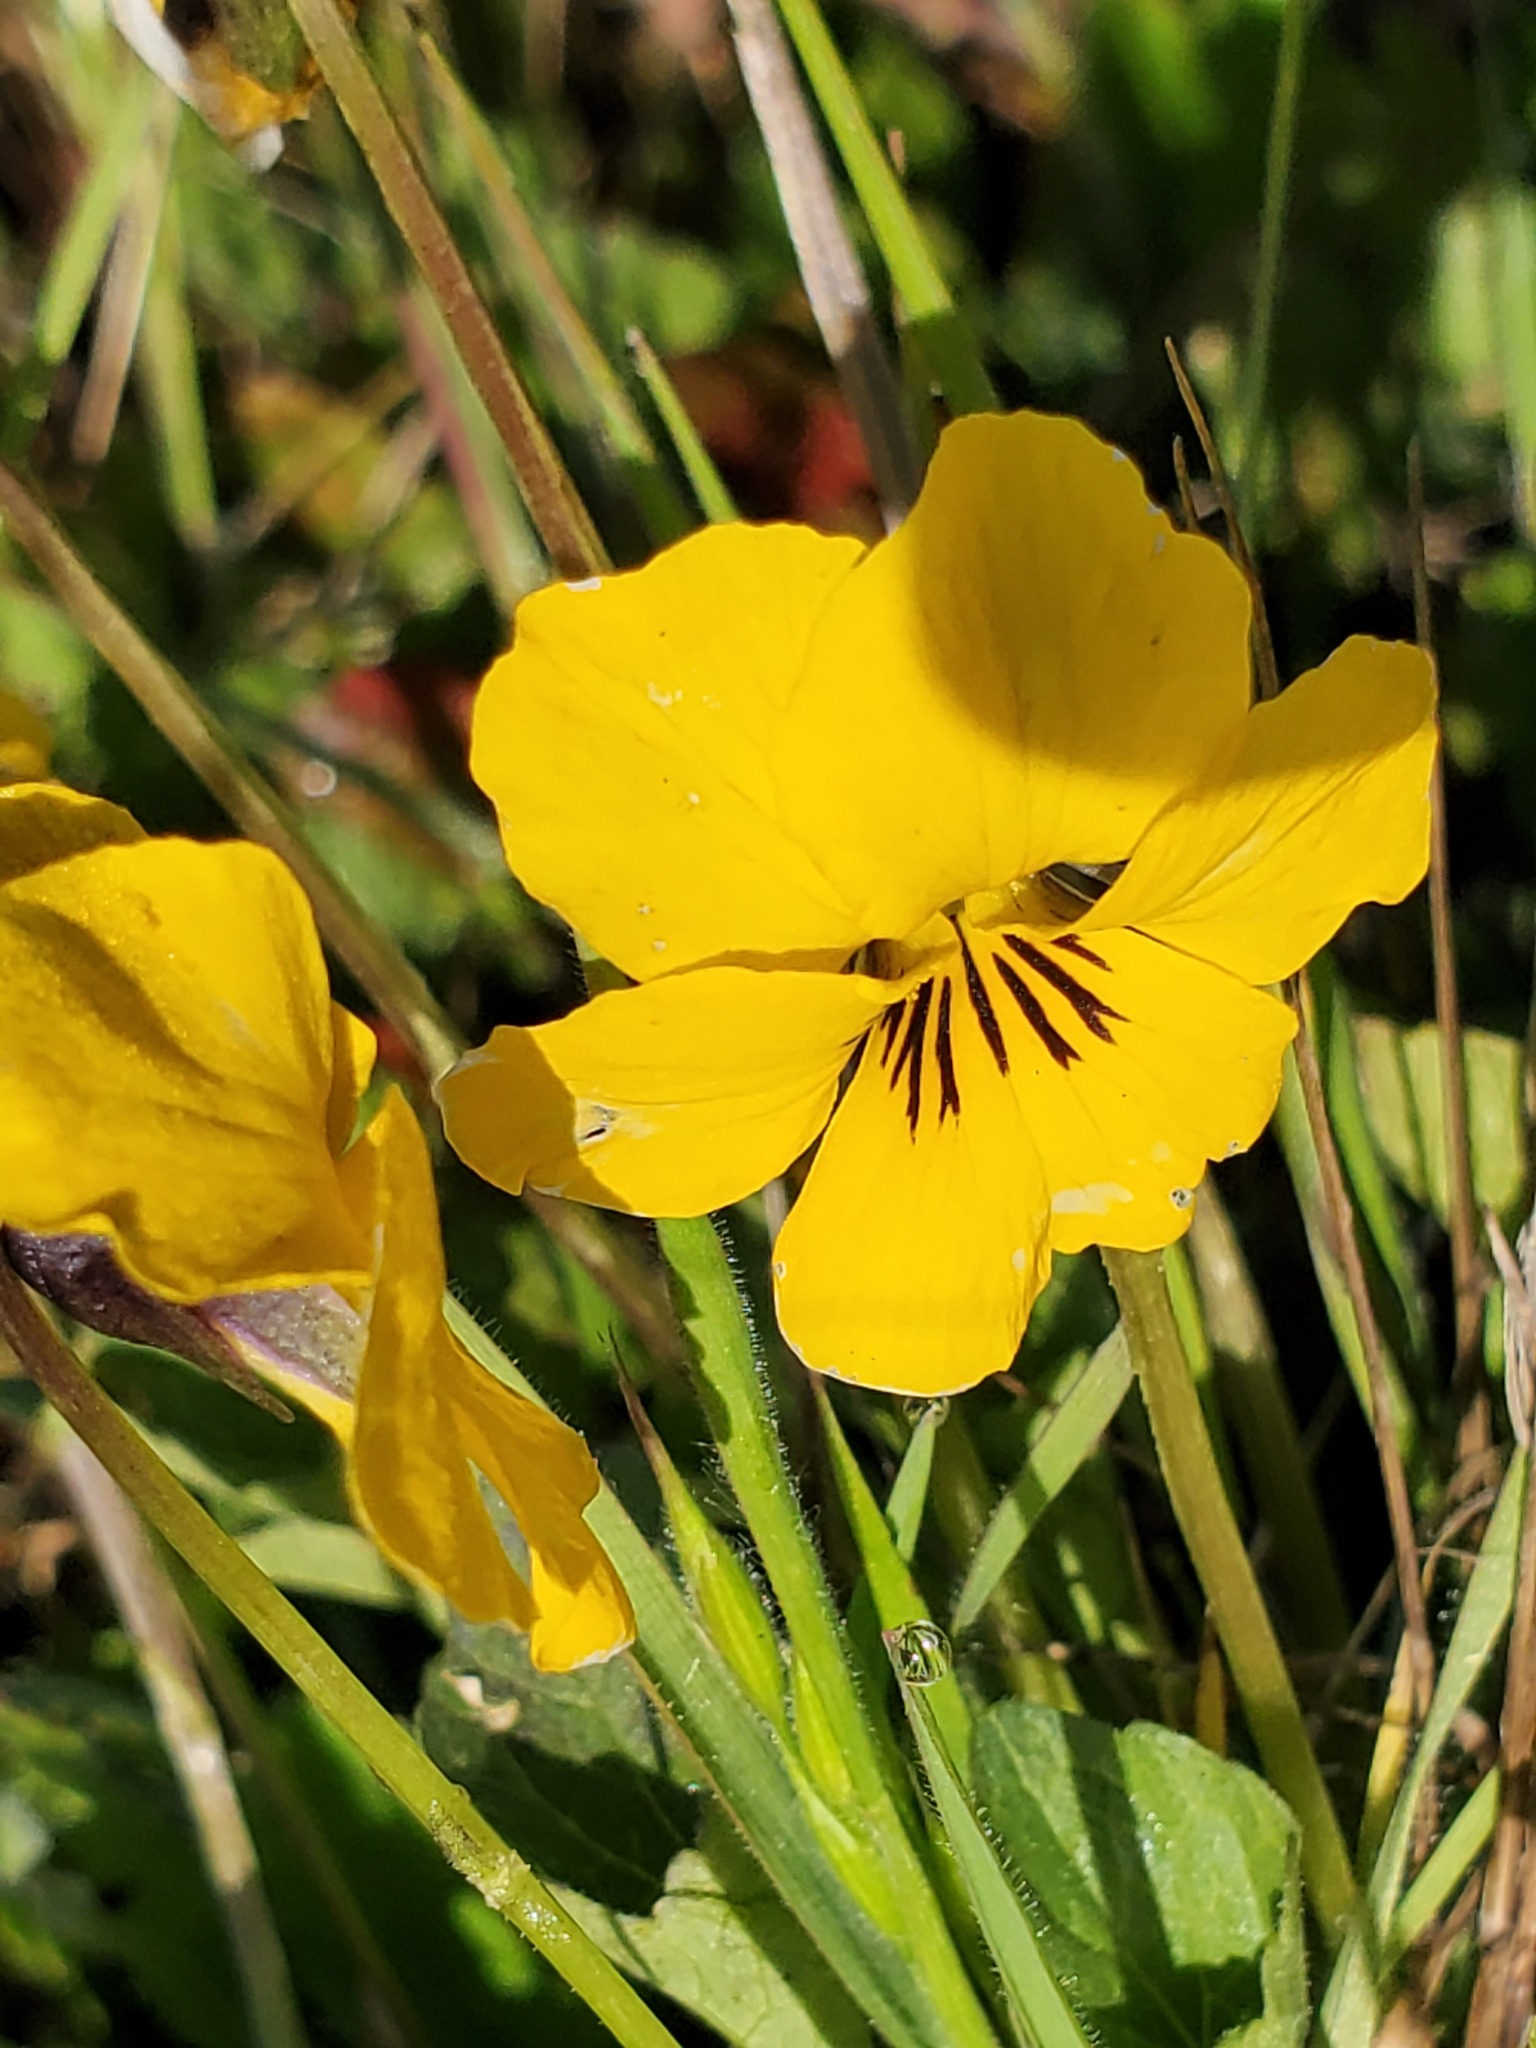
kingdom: Plantae
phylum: Tracheophyta
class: Magnoliopsida
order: Malpighiales
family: Violaceae
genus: Viola
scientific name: Viola pedunculata
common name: California golden violet
